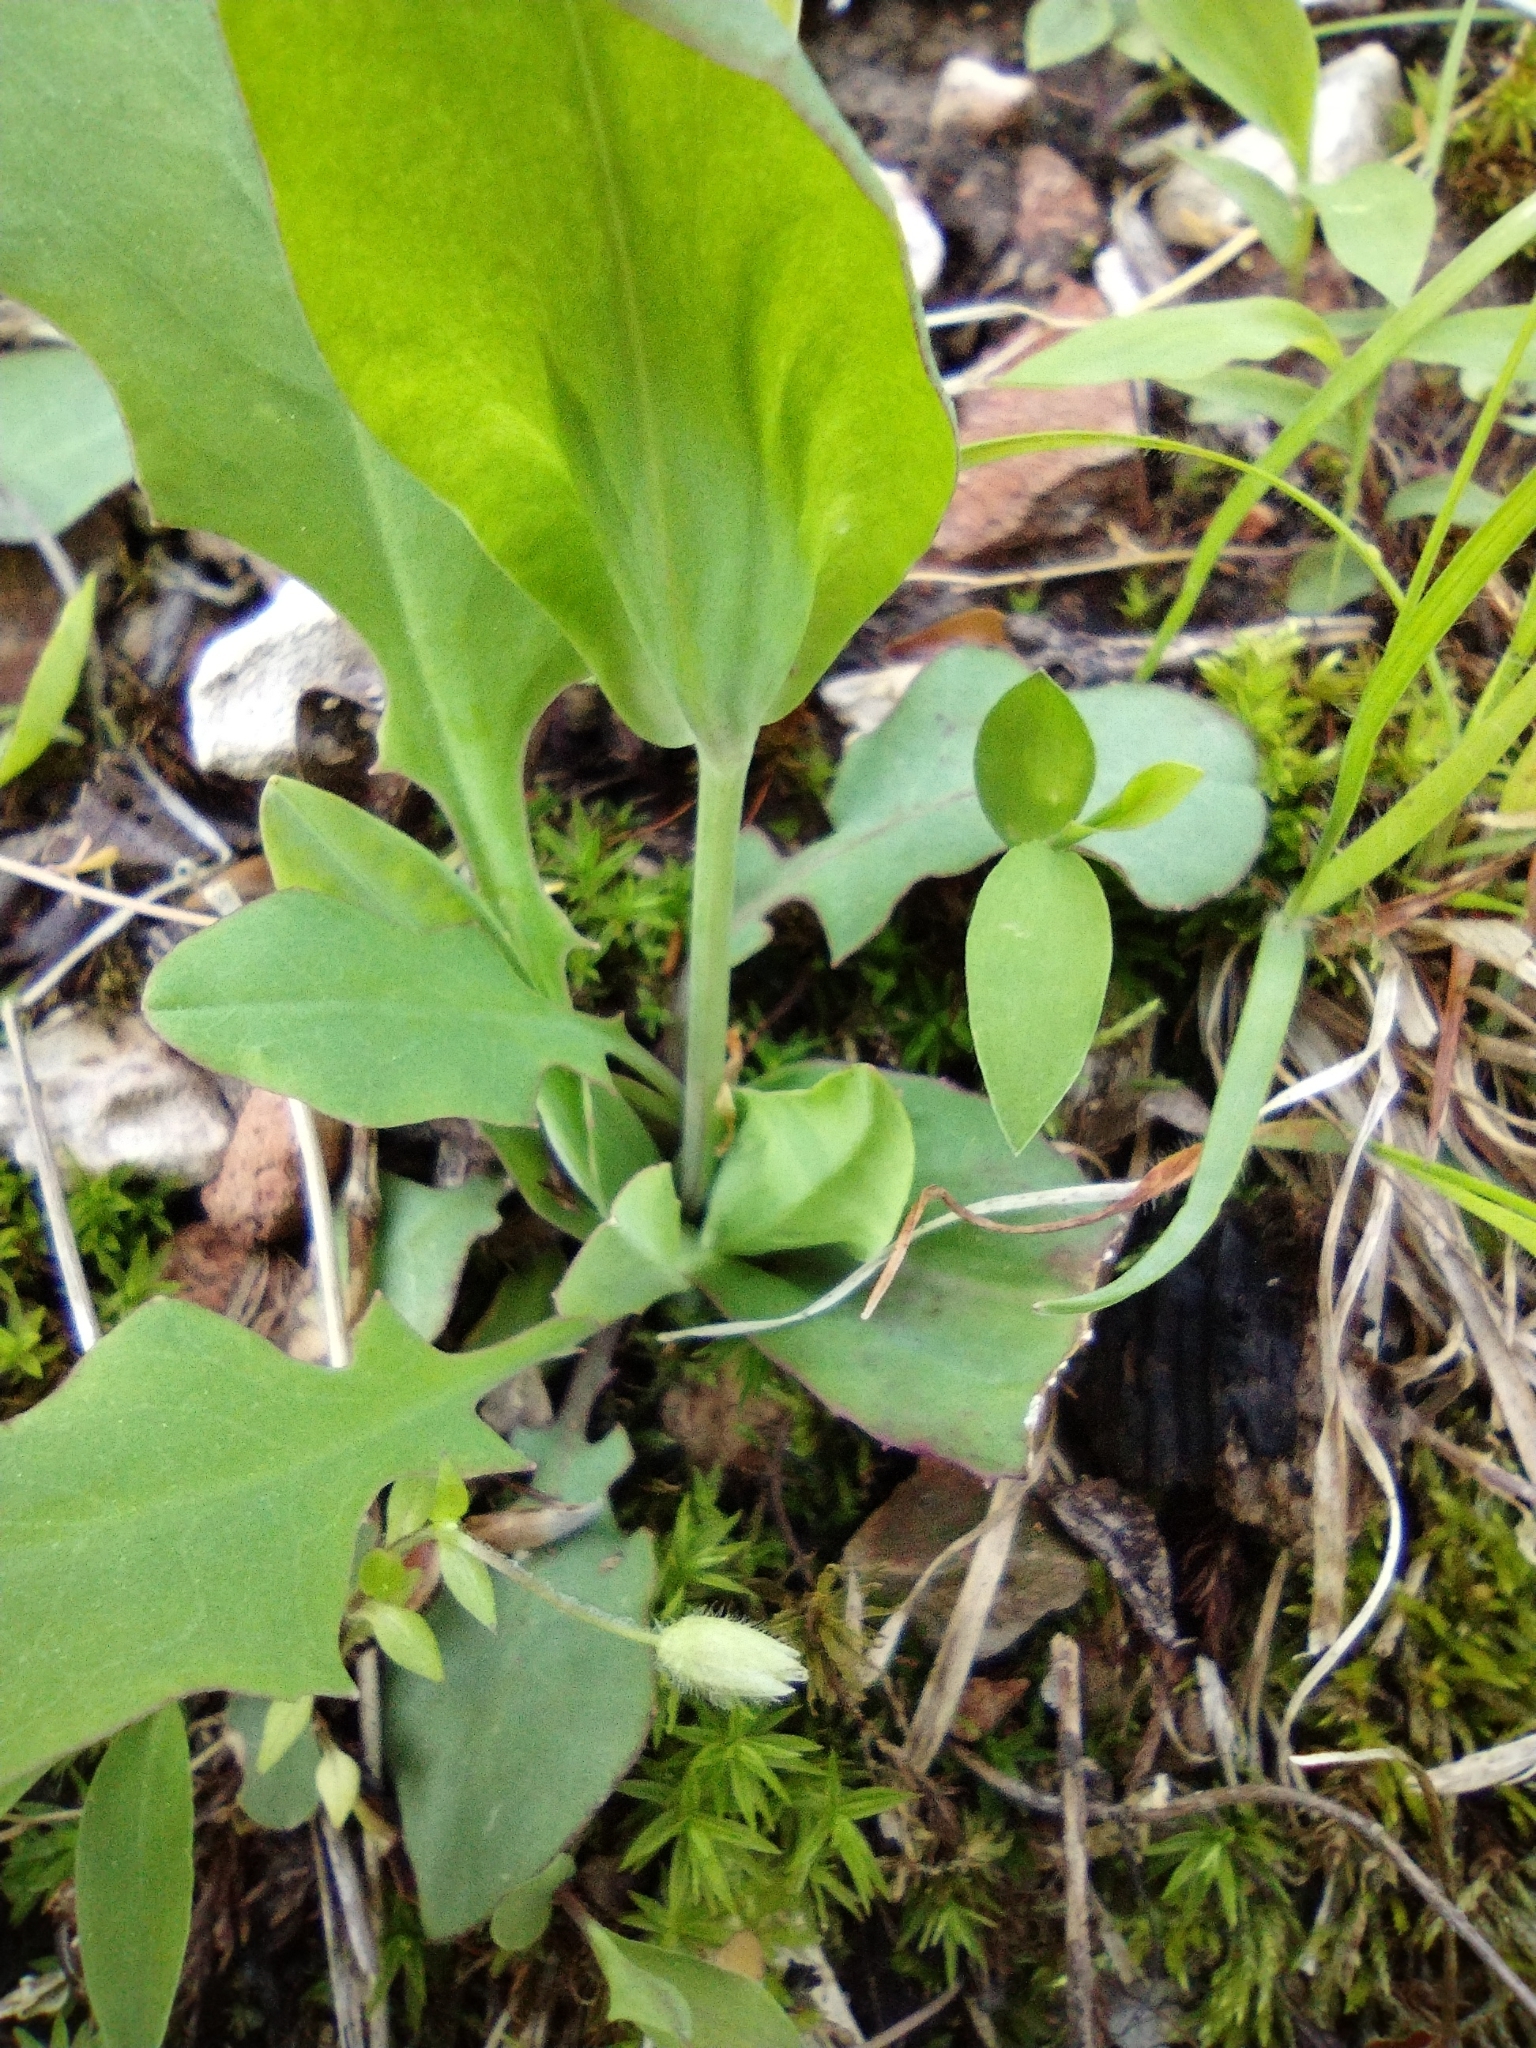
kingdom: Plantae
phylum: Tracheophyta
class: Magnoliopsida
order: Asterales
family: Asteraceae
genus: Krigia
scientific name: Krigia biflora
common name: Orange dwarf-dandelion
